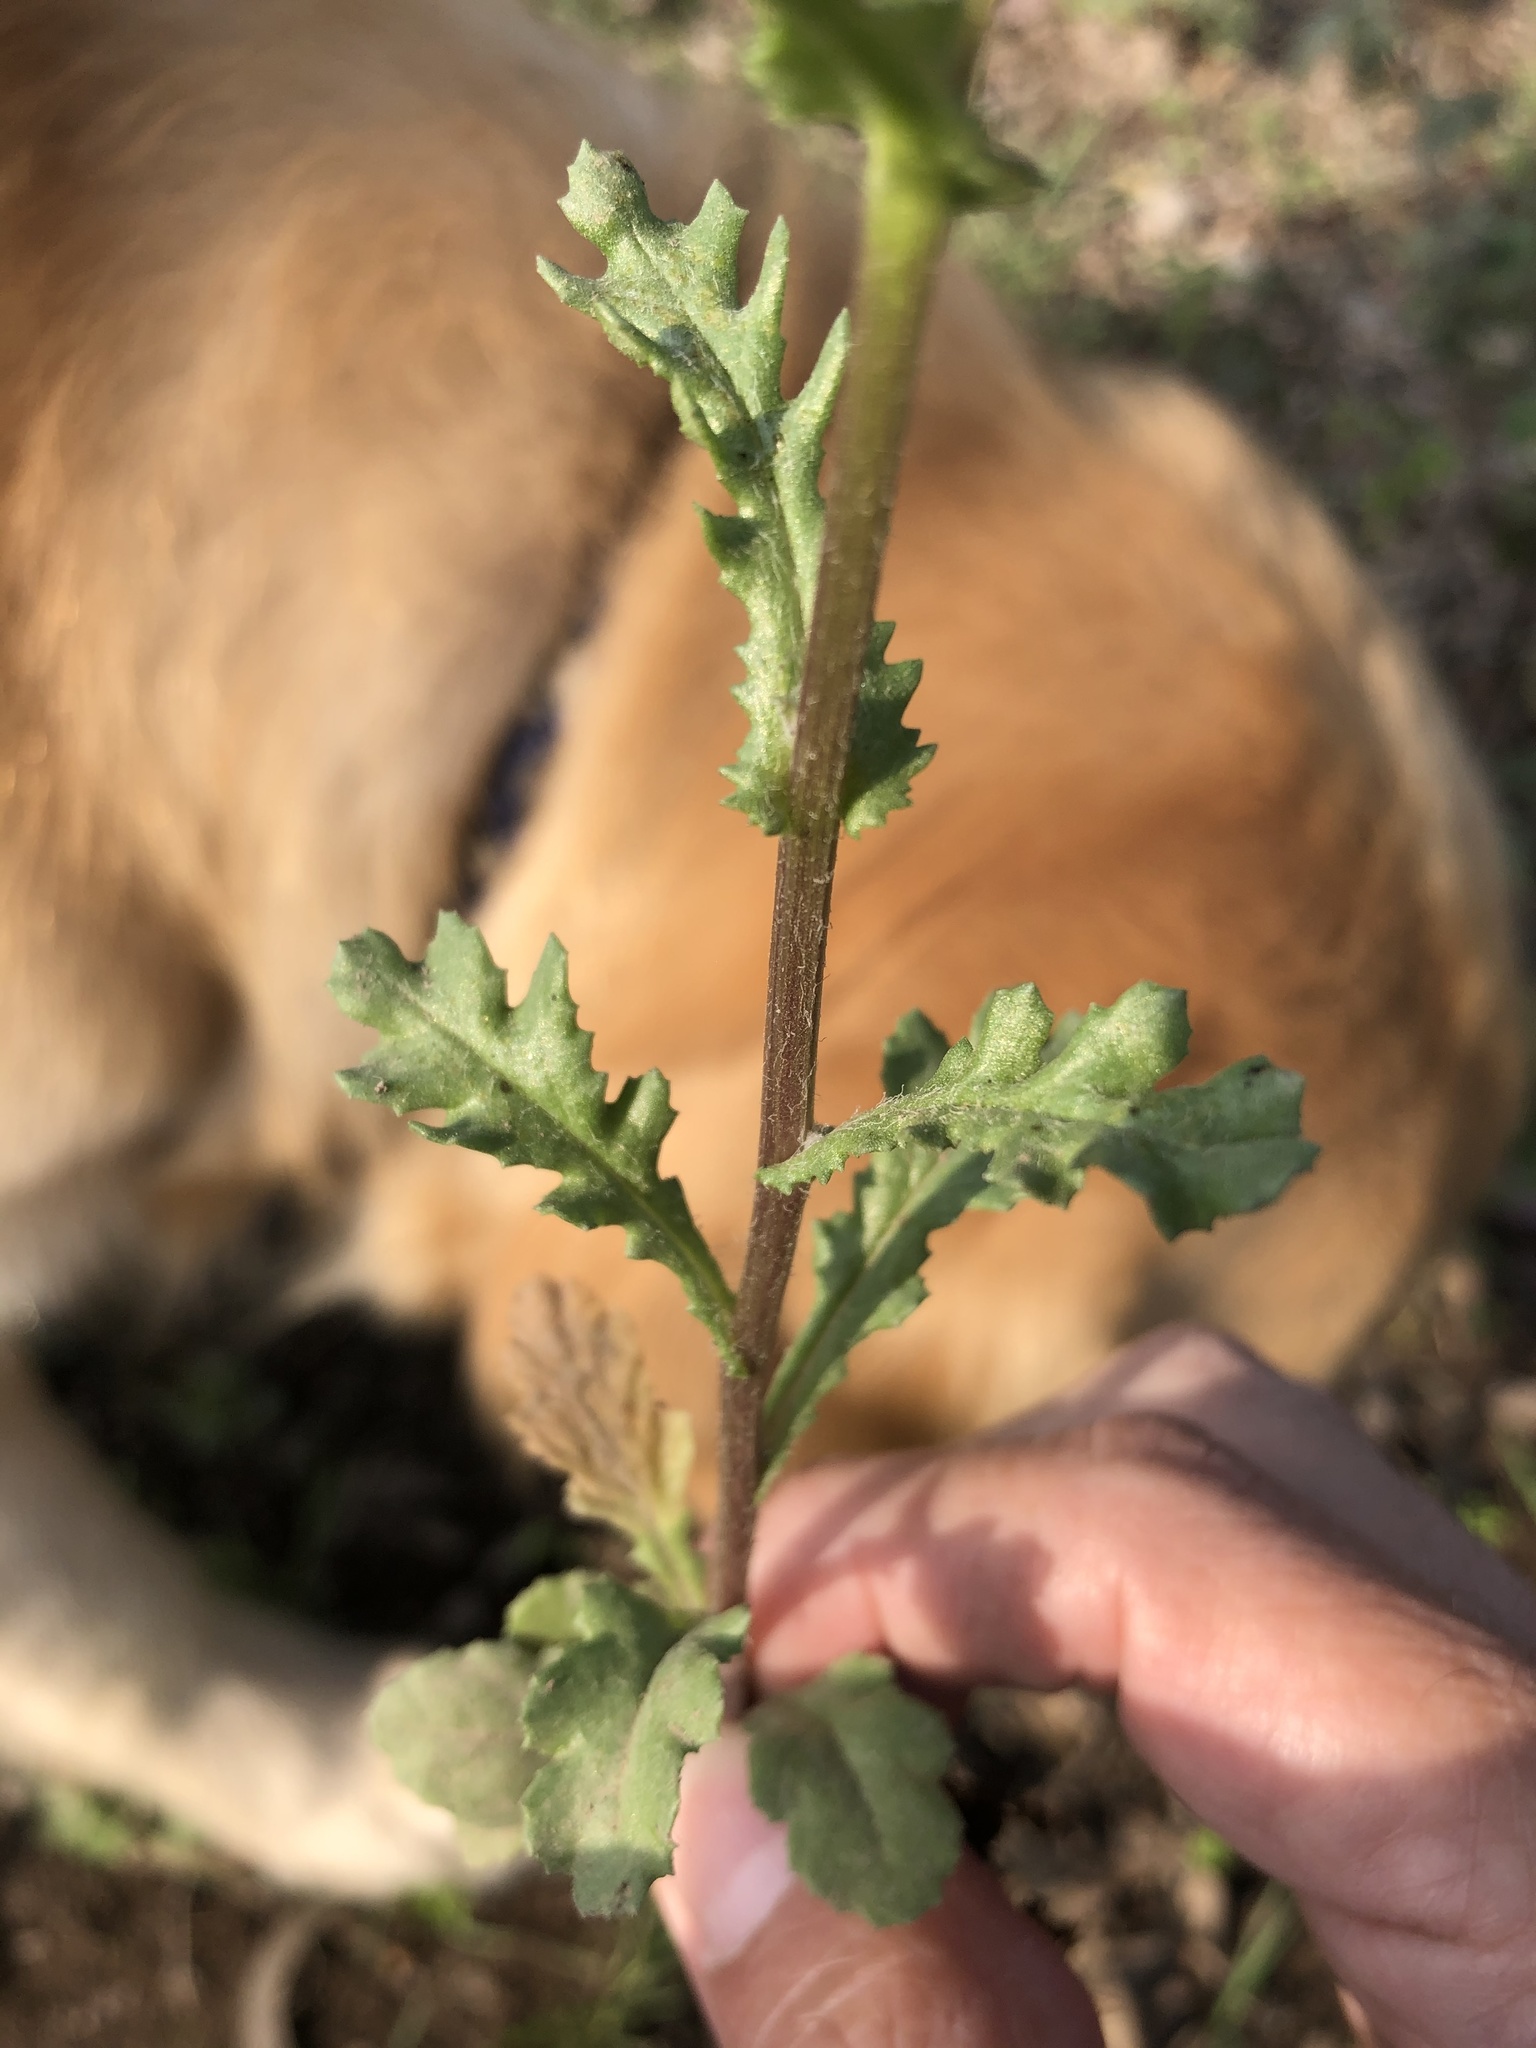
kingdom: Plantae
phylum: Tracheophyta
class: Magnoliopsida
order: Asterales
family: Asteraceae
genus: Senecio
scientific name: Senecio vulgaris
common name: Old-man-in-the-spring
